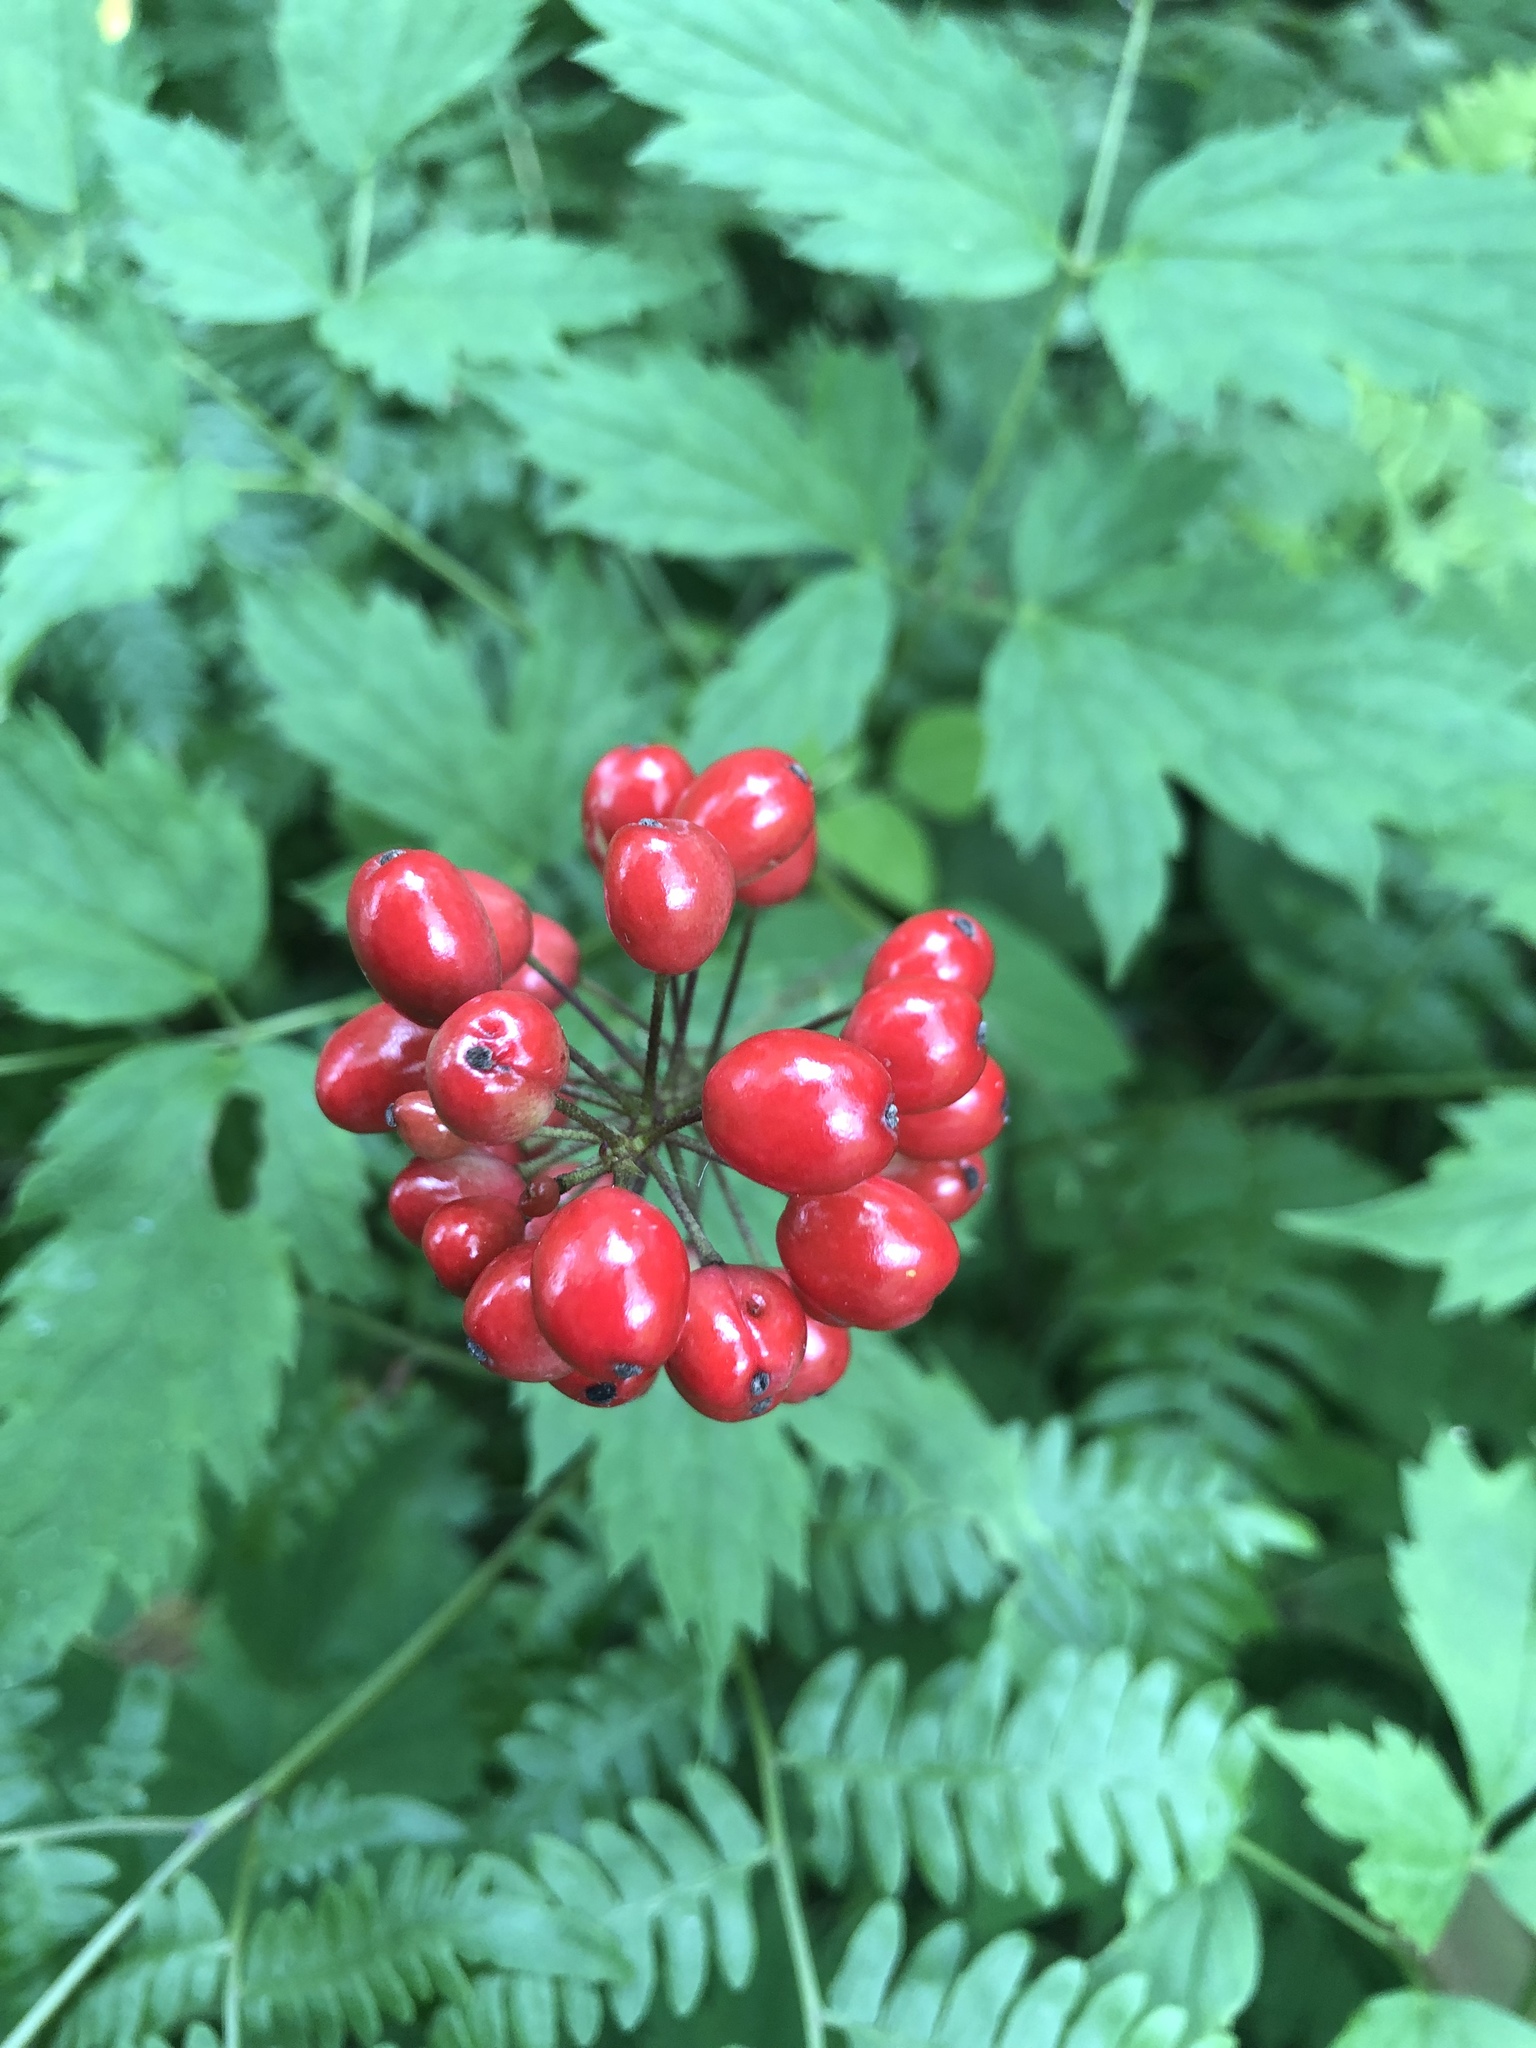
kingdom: Plantae
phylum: Tracheophyta
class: Magnoliopsida
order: Ranunculales
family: Ranunculaceae
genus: Actaea
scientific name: Actaea rubra
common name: Red baneberry
